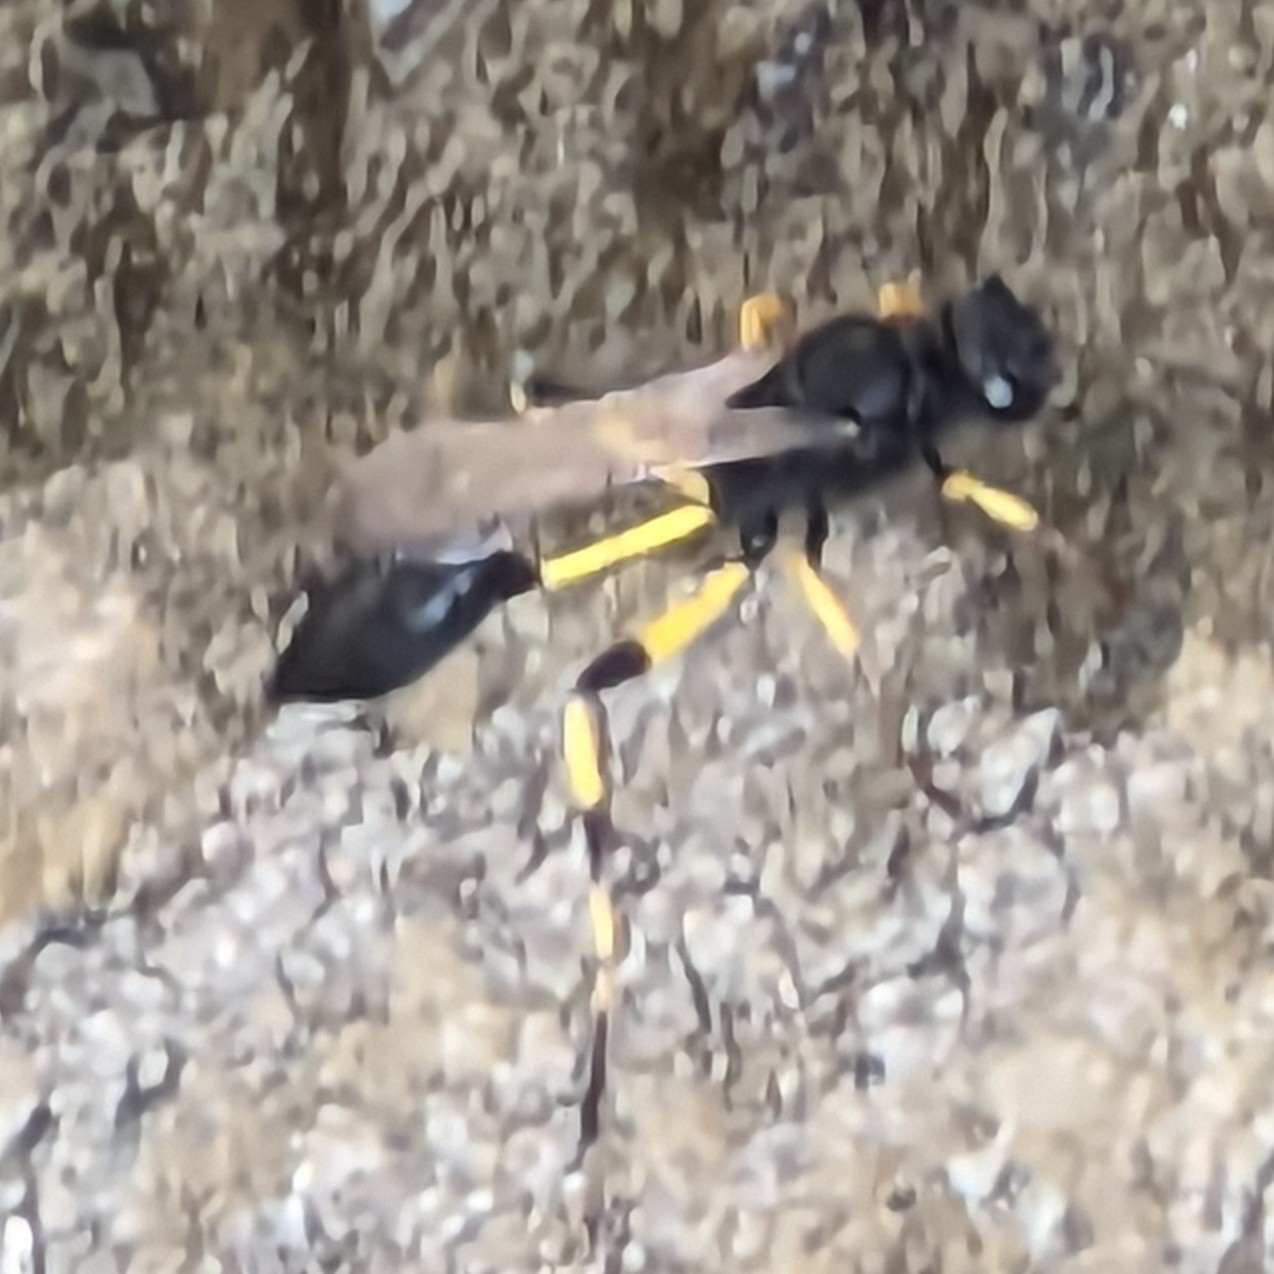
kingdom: Animalia
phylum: Arthropoda
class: Insecta
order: Hymenoptera
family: Sphecidae
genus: Sceliphron
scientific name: Sceliphron spirifex
